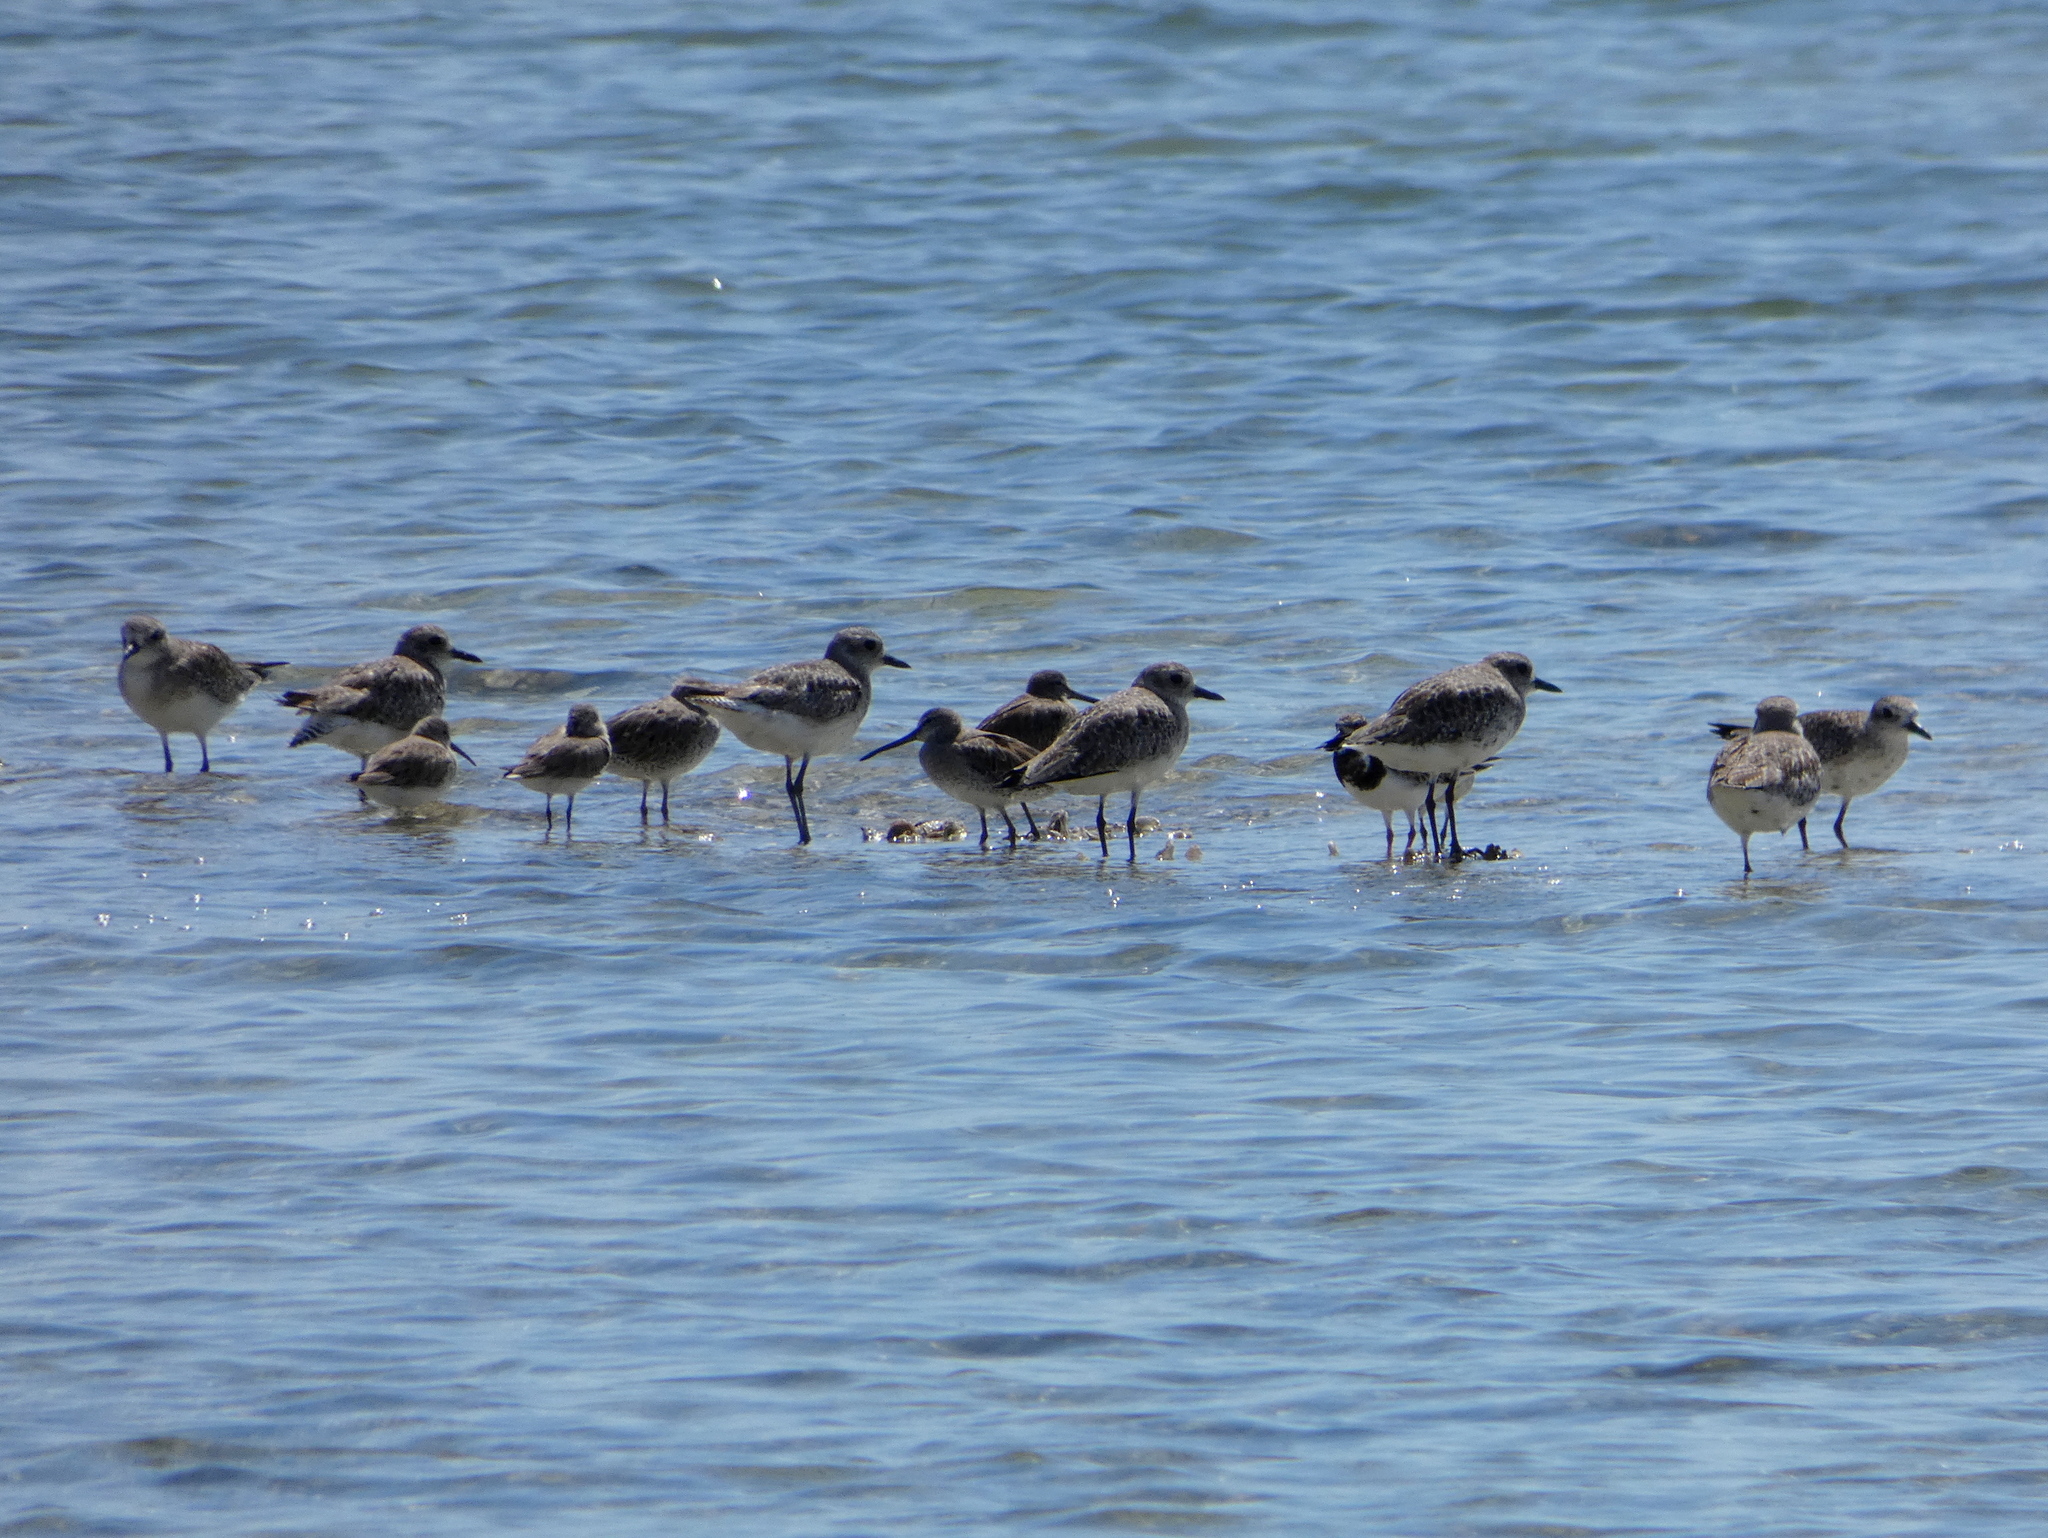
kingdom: Animalia
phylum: Chordata
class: Aves
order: Charadriiformes
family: Charadriidae
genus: Pluvialis
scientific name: Pluvialis squatarola
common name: Grey plover
